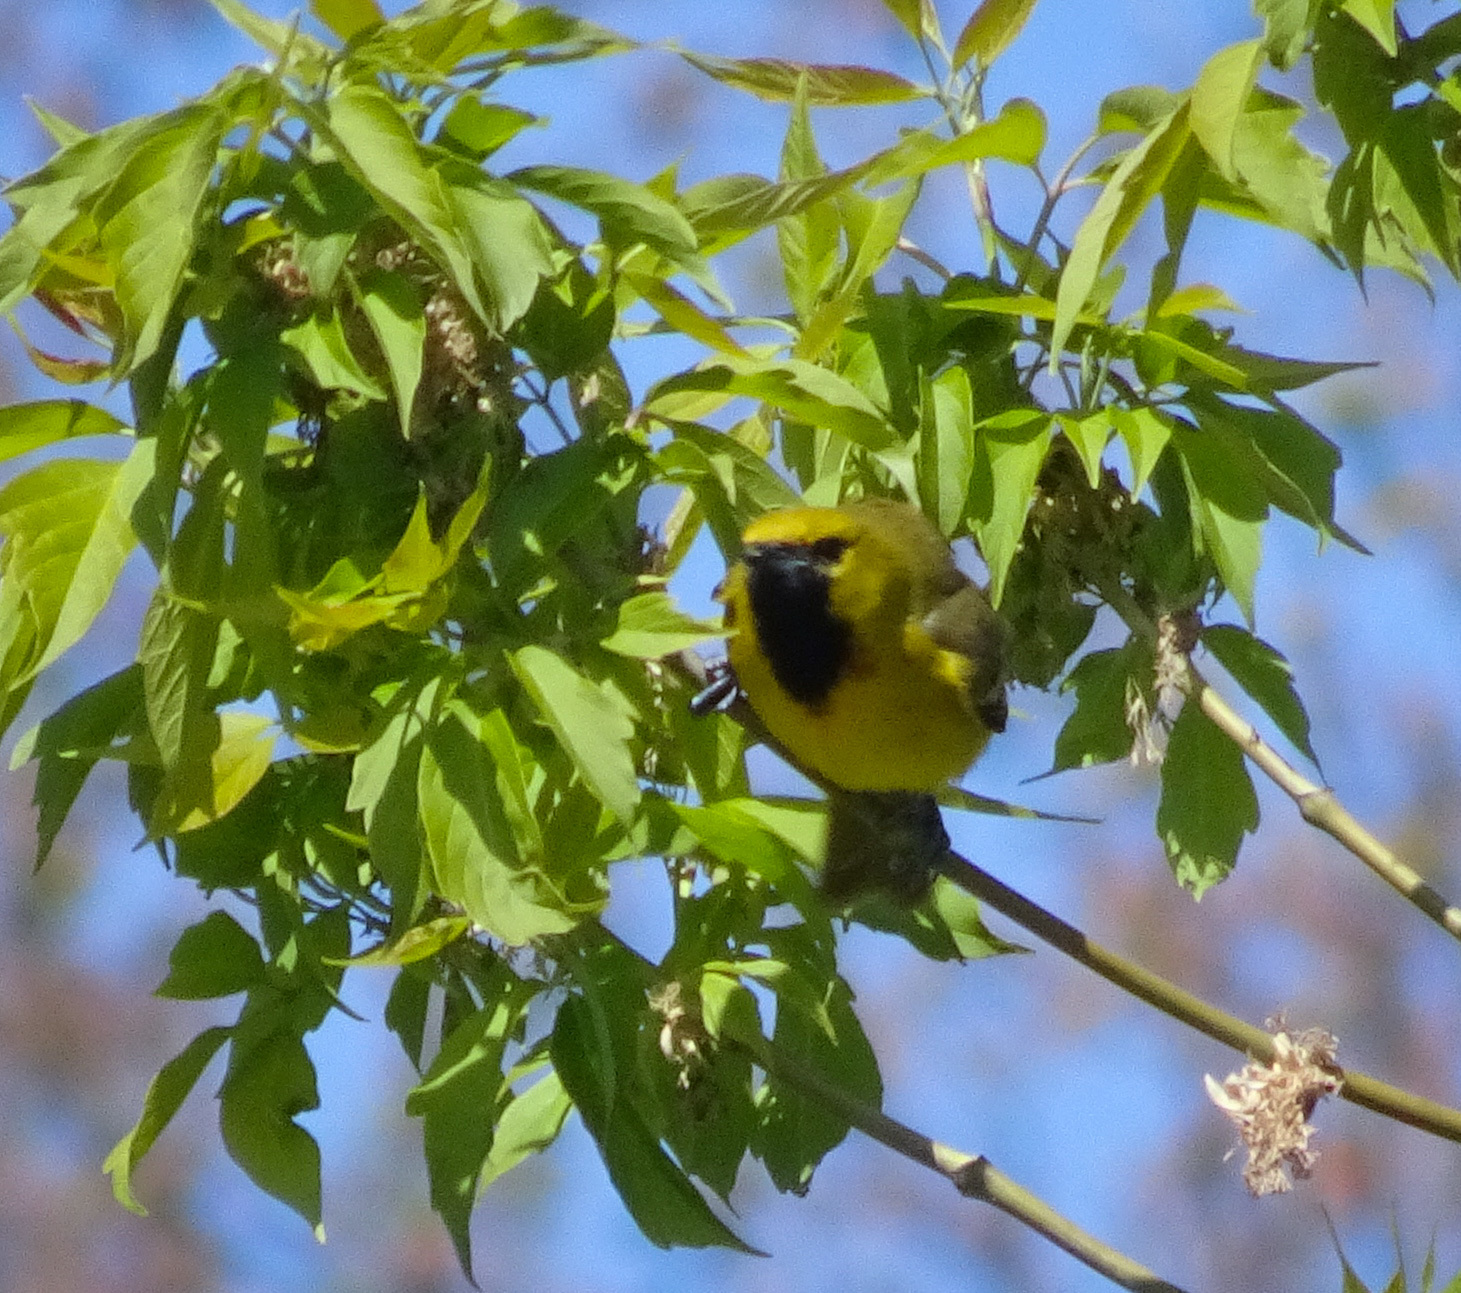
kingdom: Animalia
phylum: Chordata
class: Aves
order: Passeriformes
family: Icteridae
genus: Icterus
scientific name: Icterus spurius
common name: Orchard oriole
